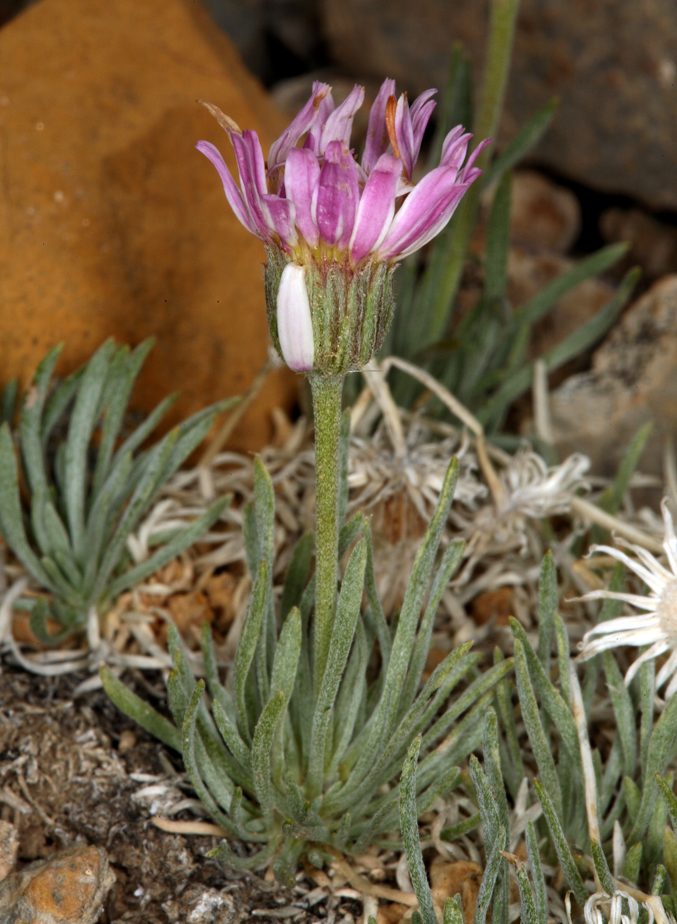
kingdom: Plantae
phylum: Tracheophyta
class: Magnoliopsida
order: Asterales
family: Asteraceae
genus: Erigeron
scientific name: Erigeron compactus
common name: Fern-leaf fleabane
